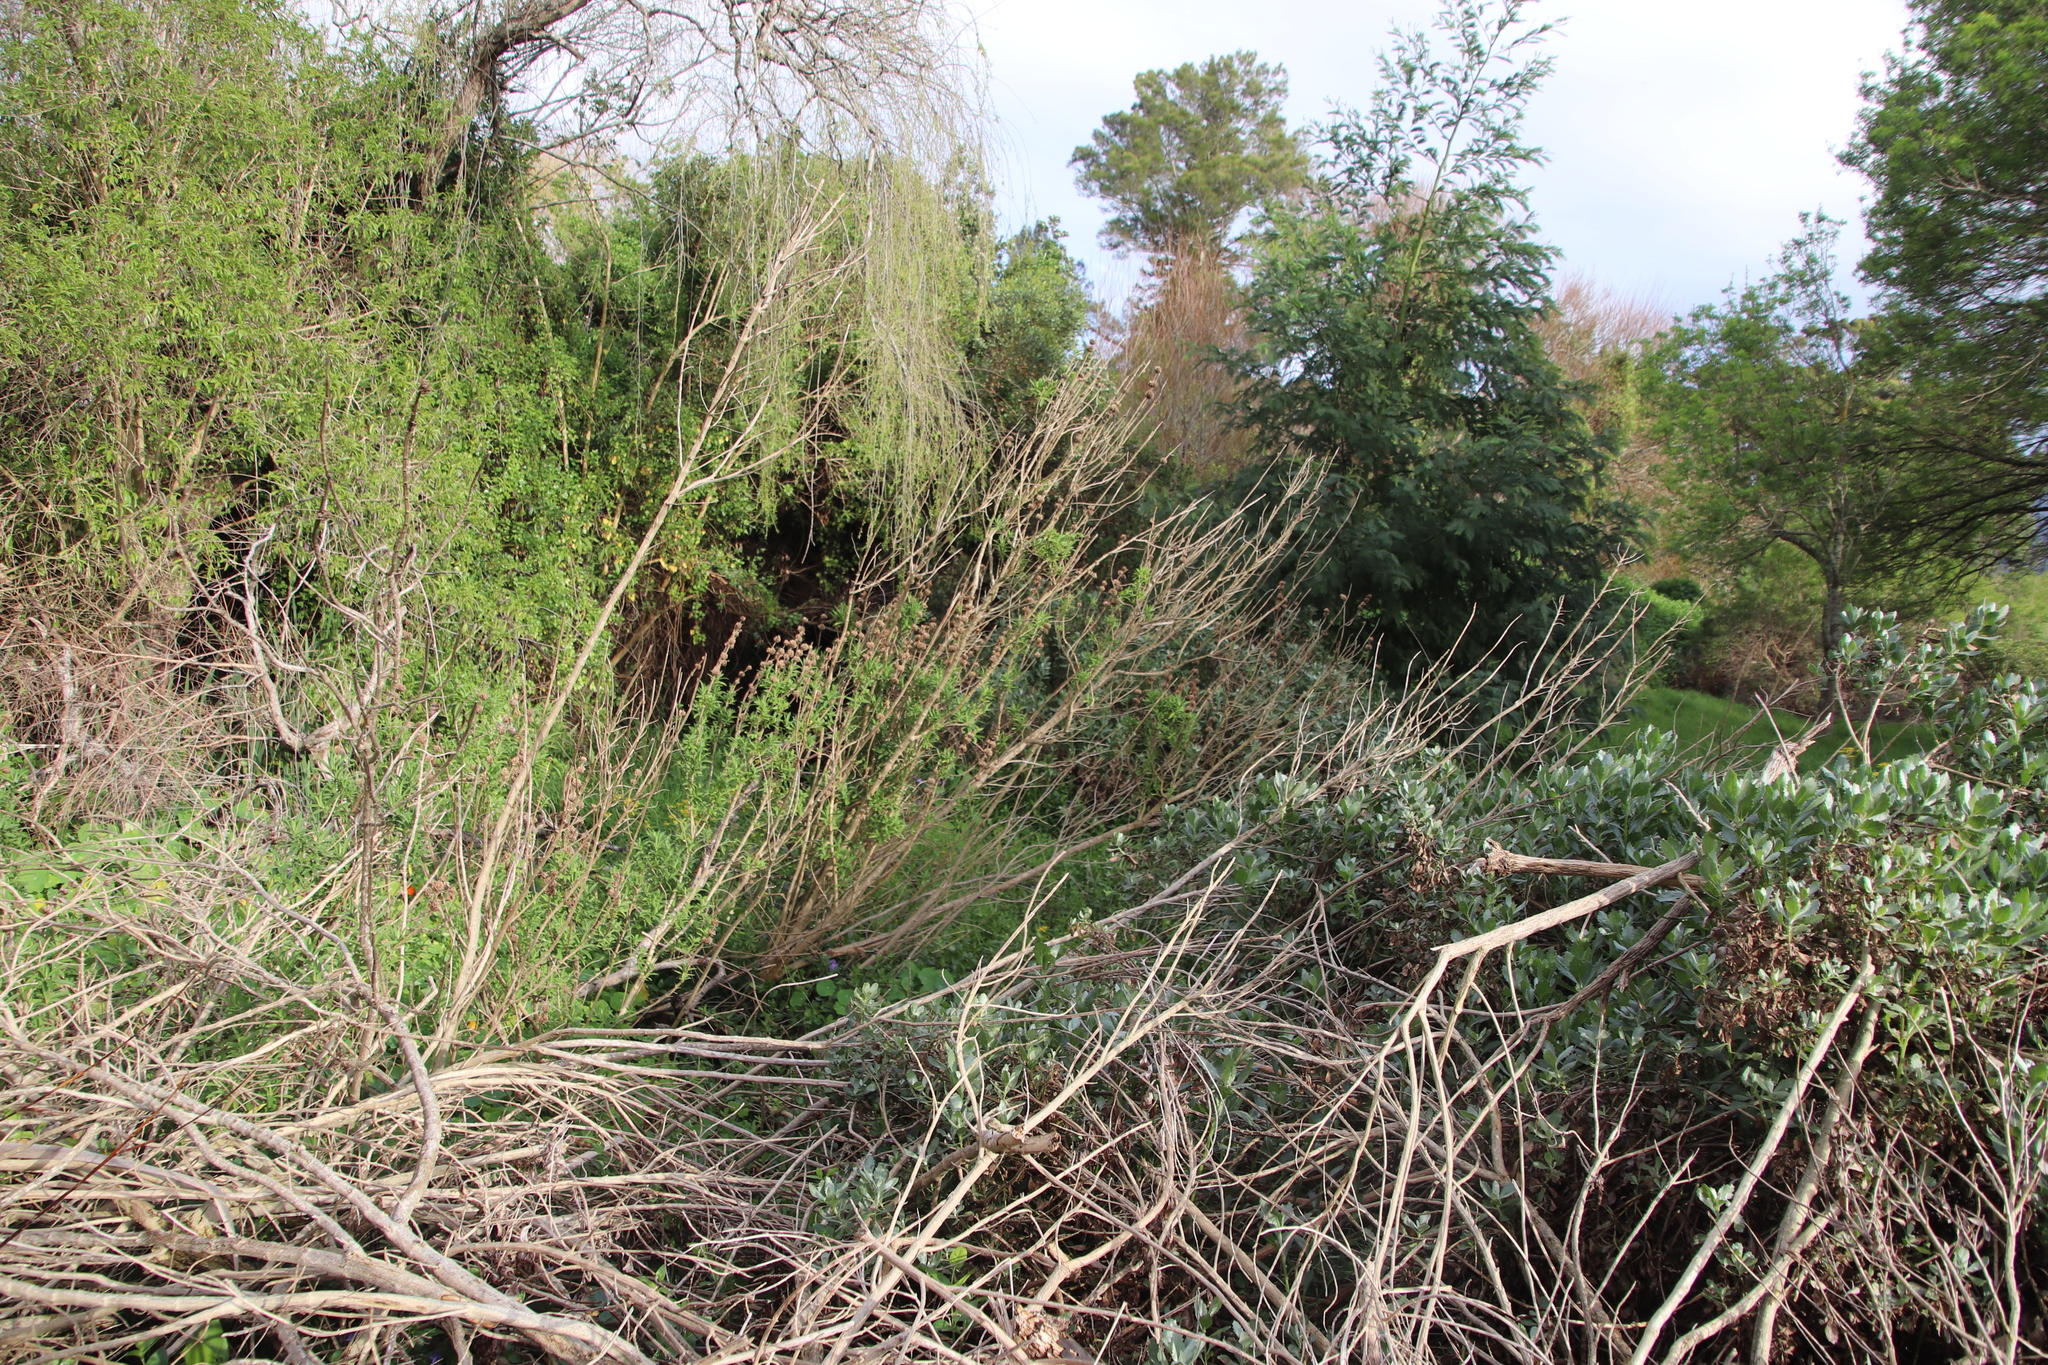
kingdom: Plantae
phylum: Tracheophyta
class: Magnoliopsida
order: Lamiales
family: Lamiaceae
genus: Leonotis
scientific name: Leonotis leonurus
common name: Lion's ear
